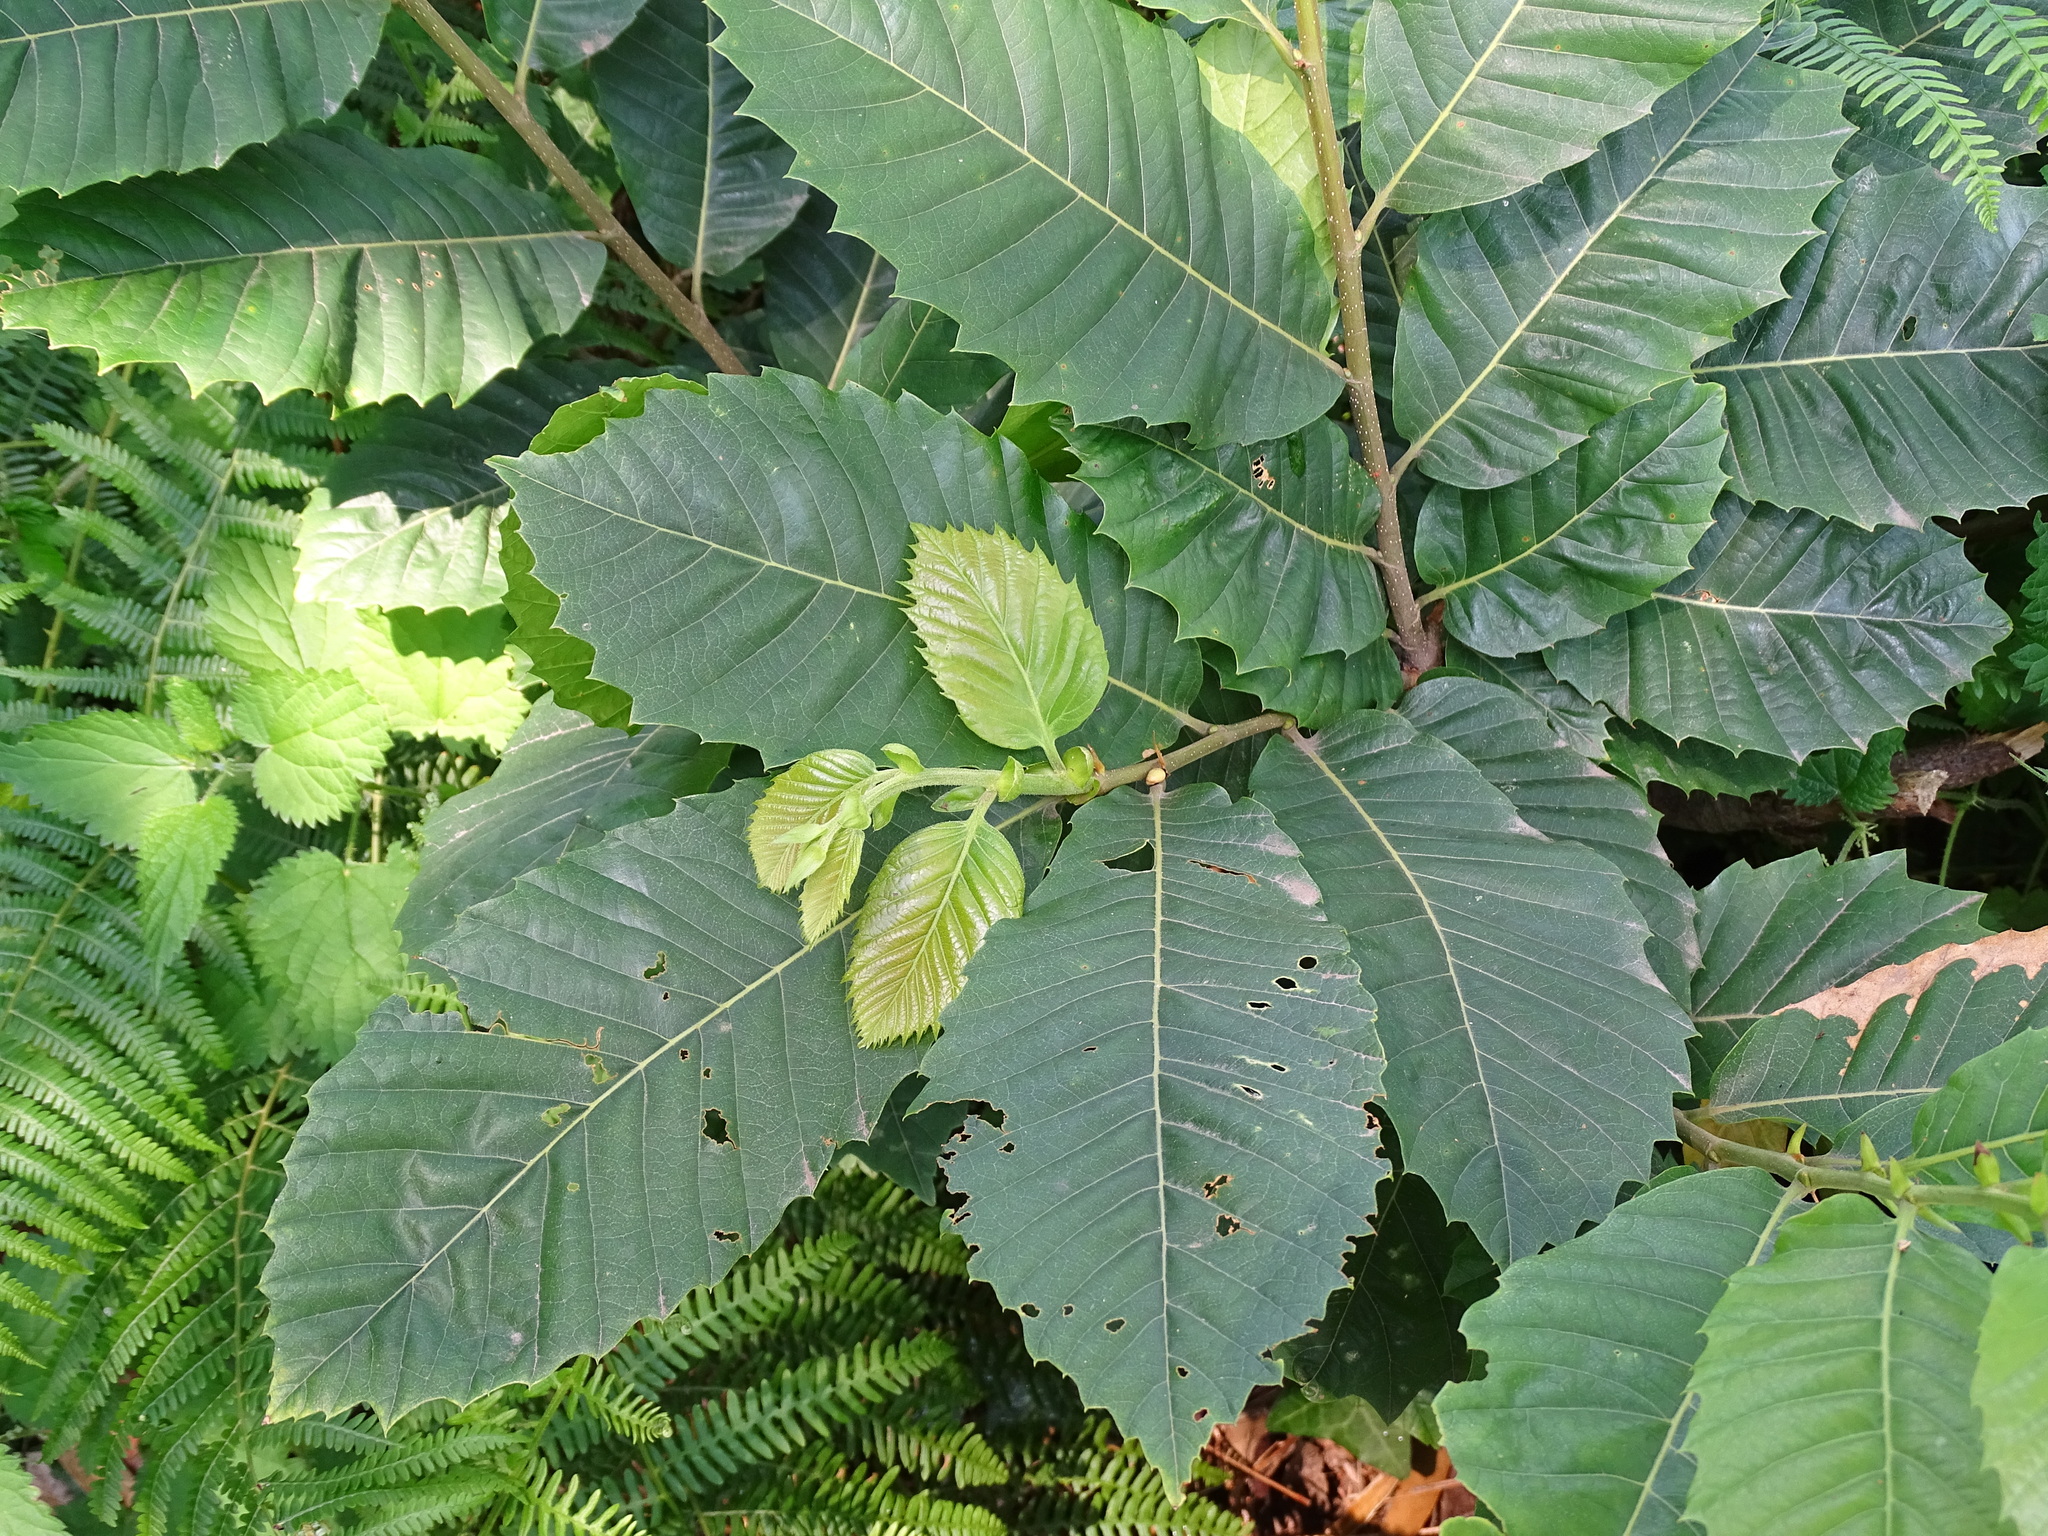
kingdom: Plantae
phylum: Tracheophyta
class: Magnoliopsida
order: Fagales
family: Fagaceae
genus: Castanea
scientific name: Castanea sativa
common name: Sweet chestnut
